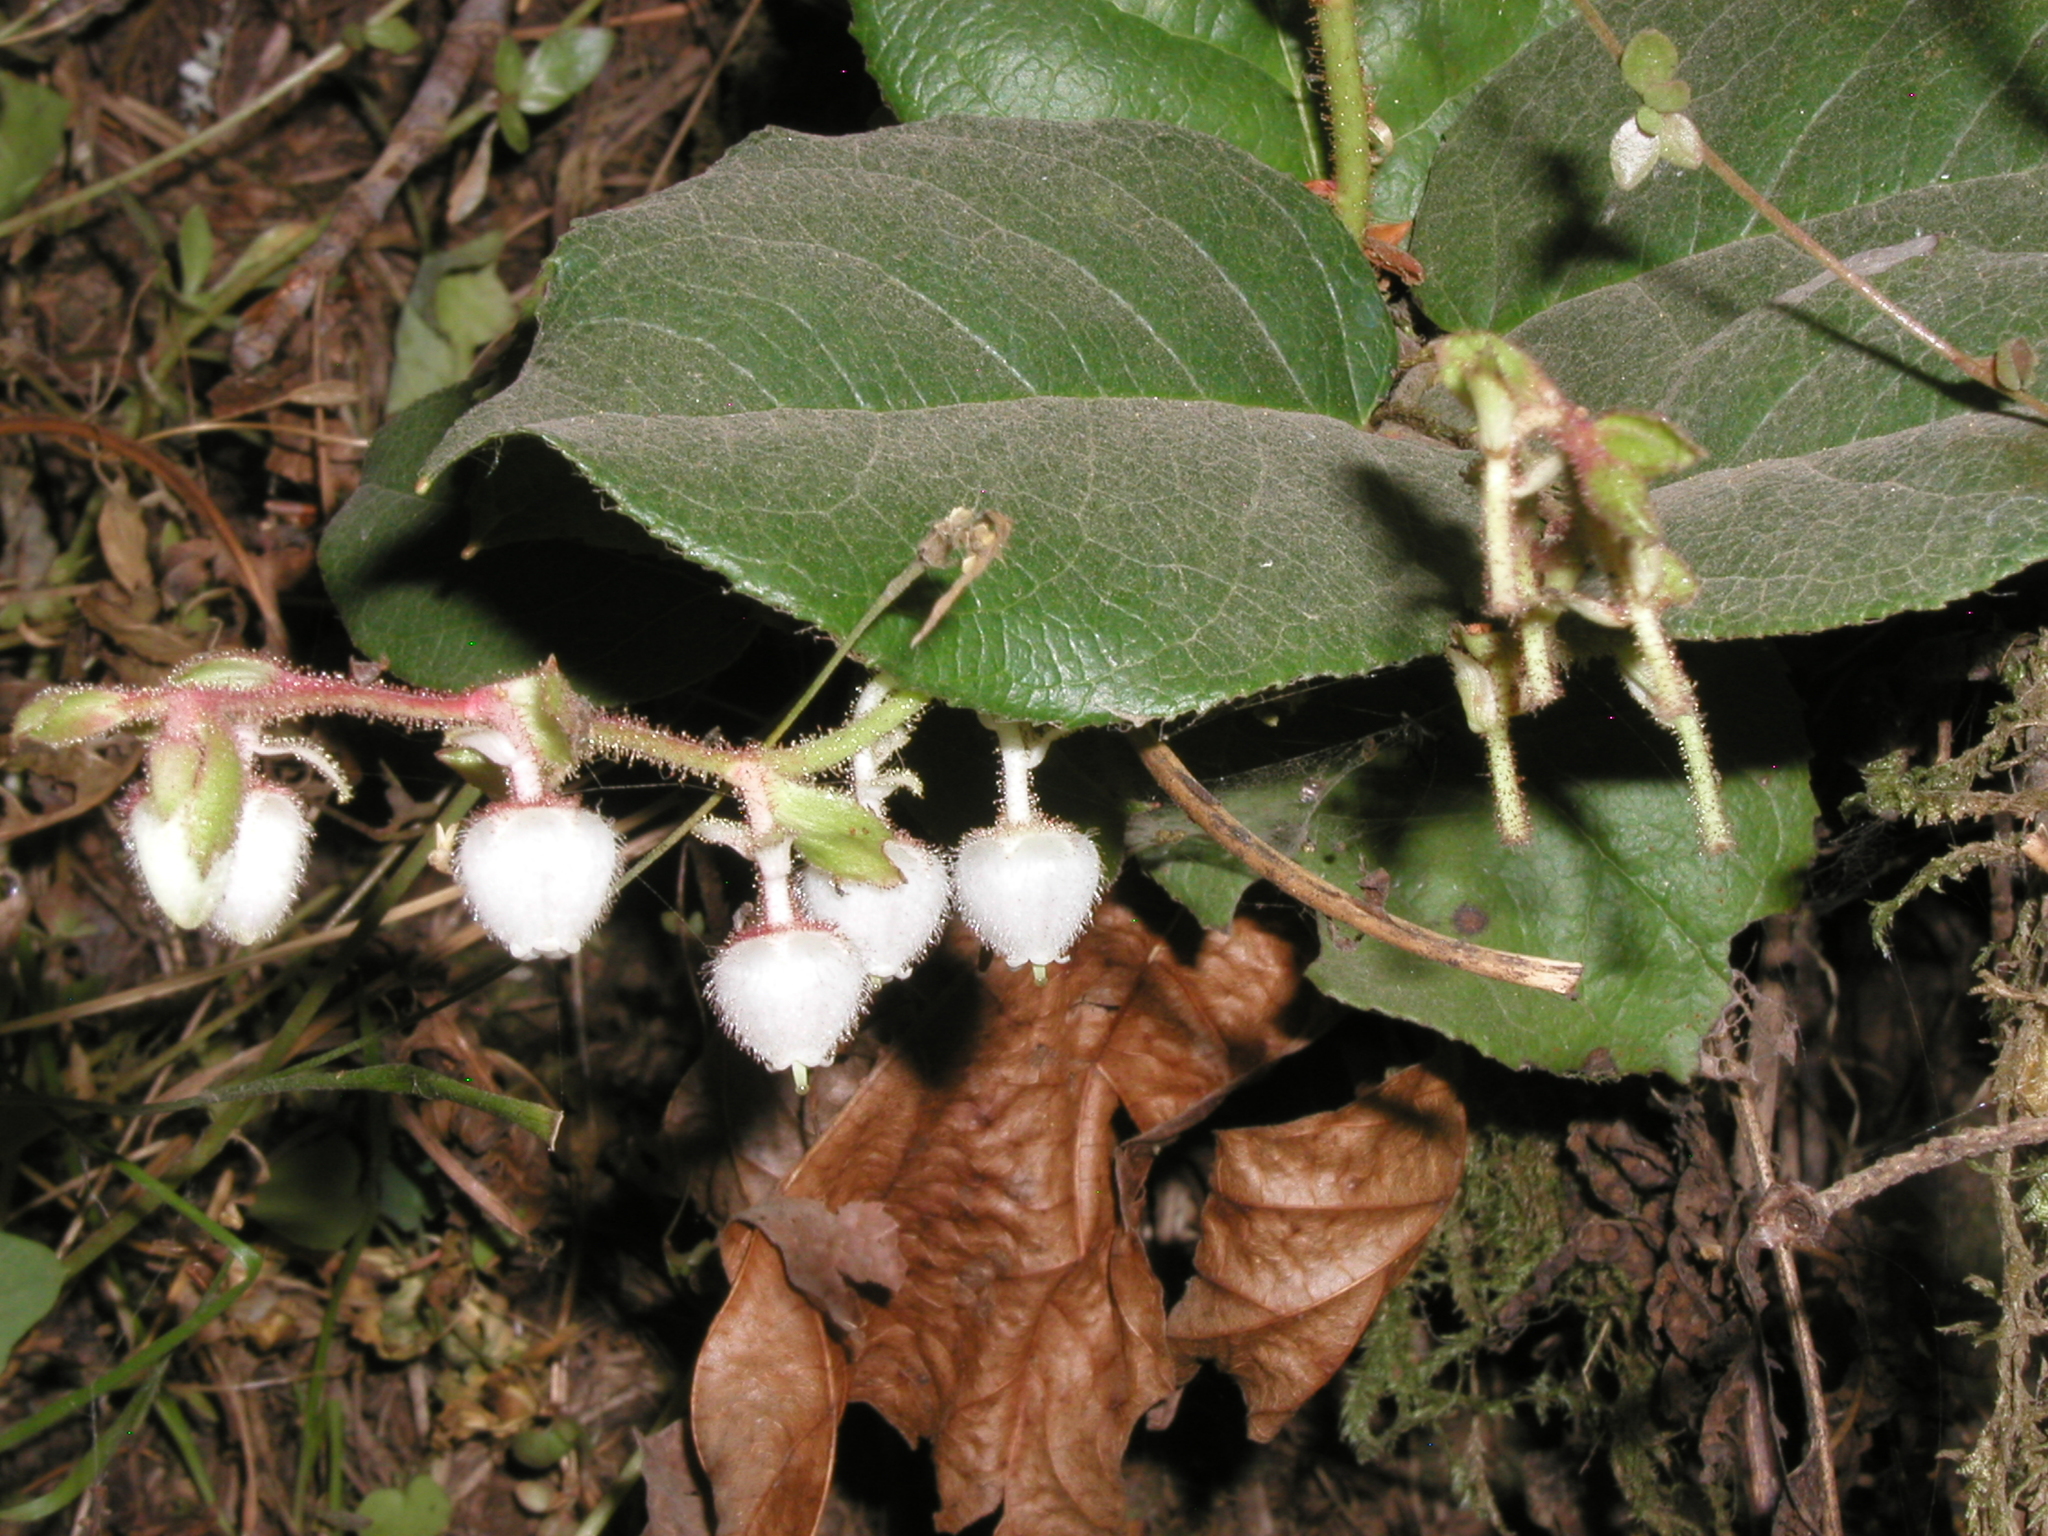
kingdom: Plantae
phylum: Tracheophyta
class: Magnoliopsida
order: Ericales
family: Ericaceae
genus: Gaultheria
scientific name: Gaultheria shallon
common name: Shallon
